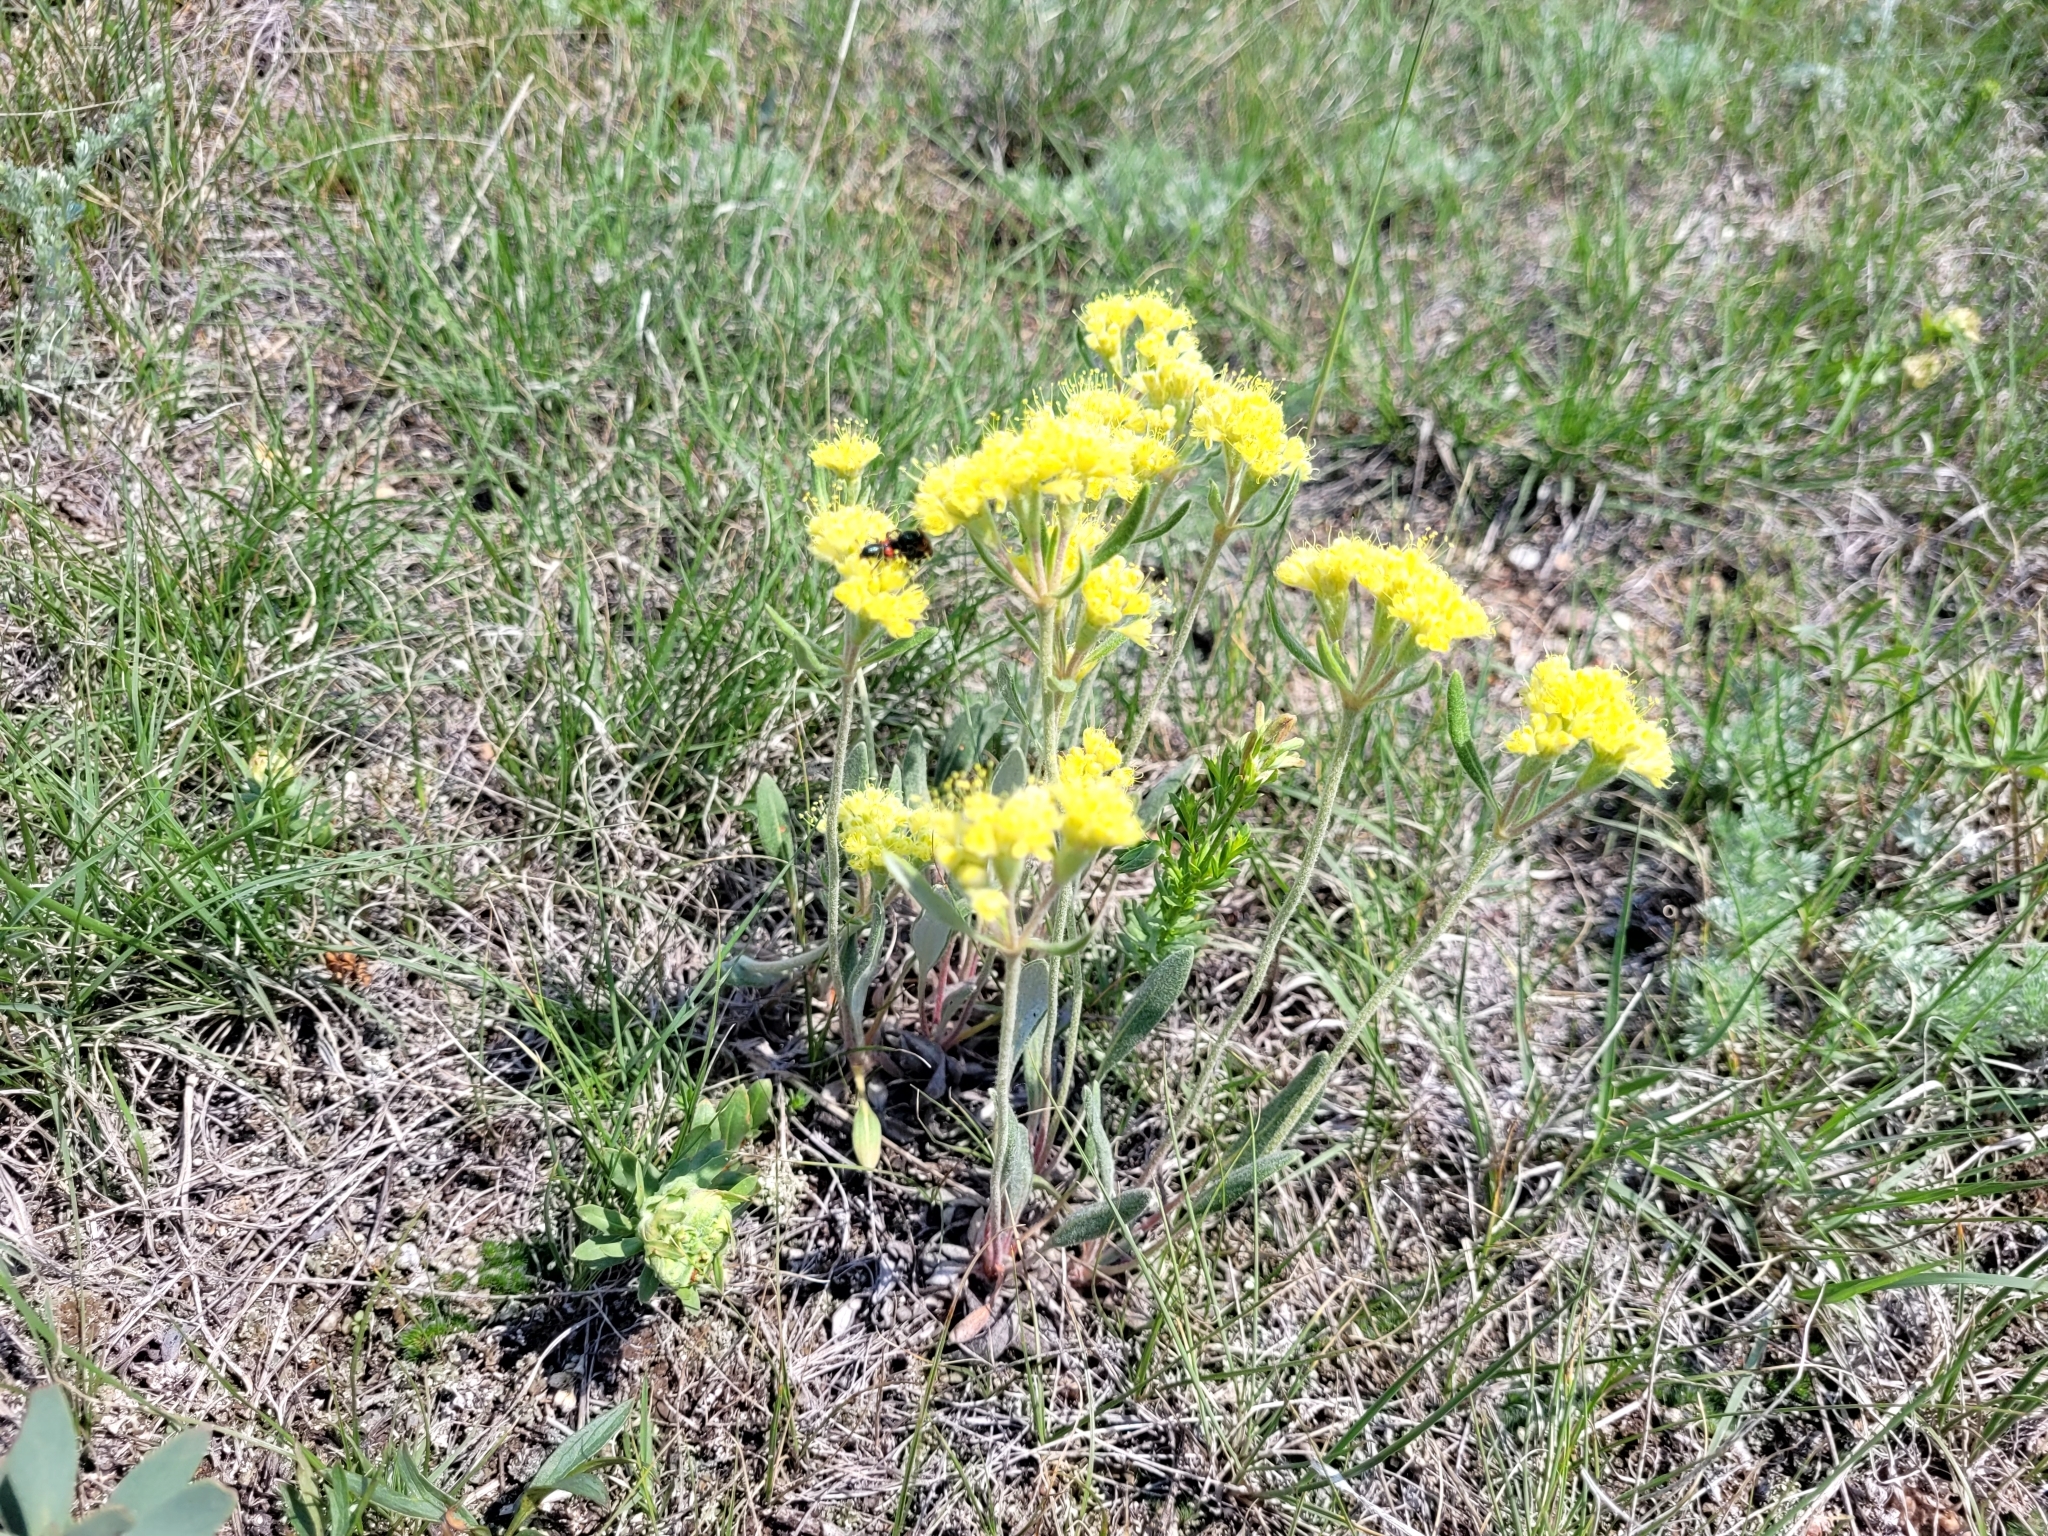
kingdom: Plantae
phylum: Tracheophyta
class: Magnoliopsida
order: Caryophyllales
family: Polygonaceae
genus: Eriogonum
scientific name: Eriogonum flavum
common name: Alpine golden wild buckwheat
